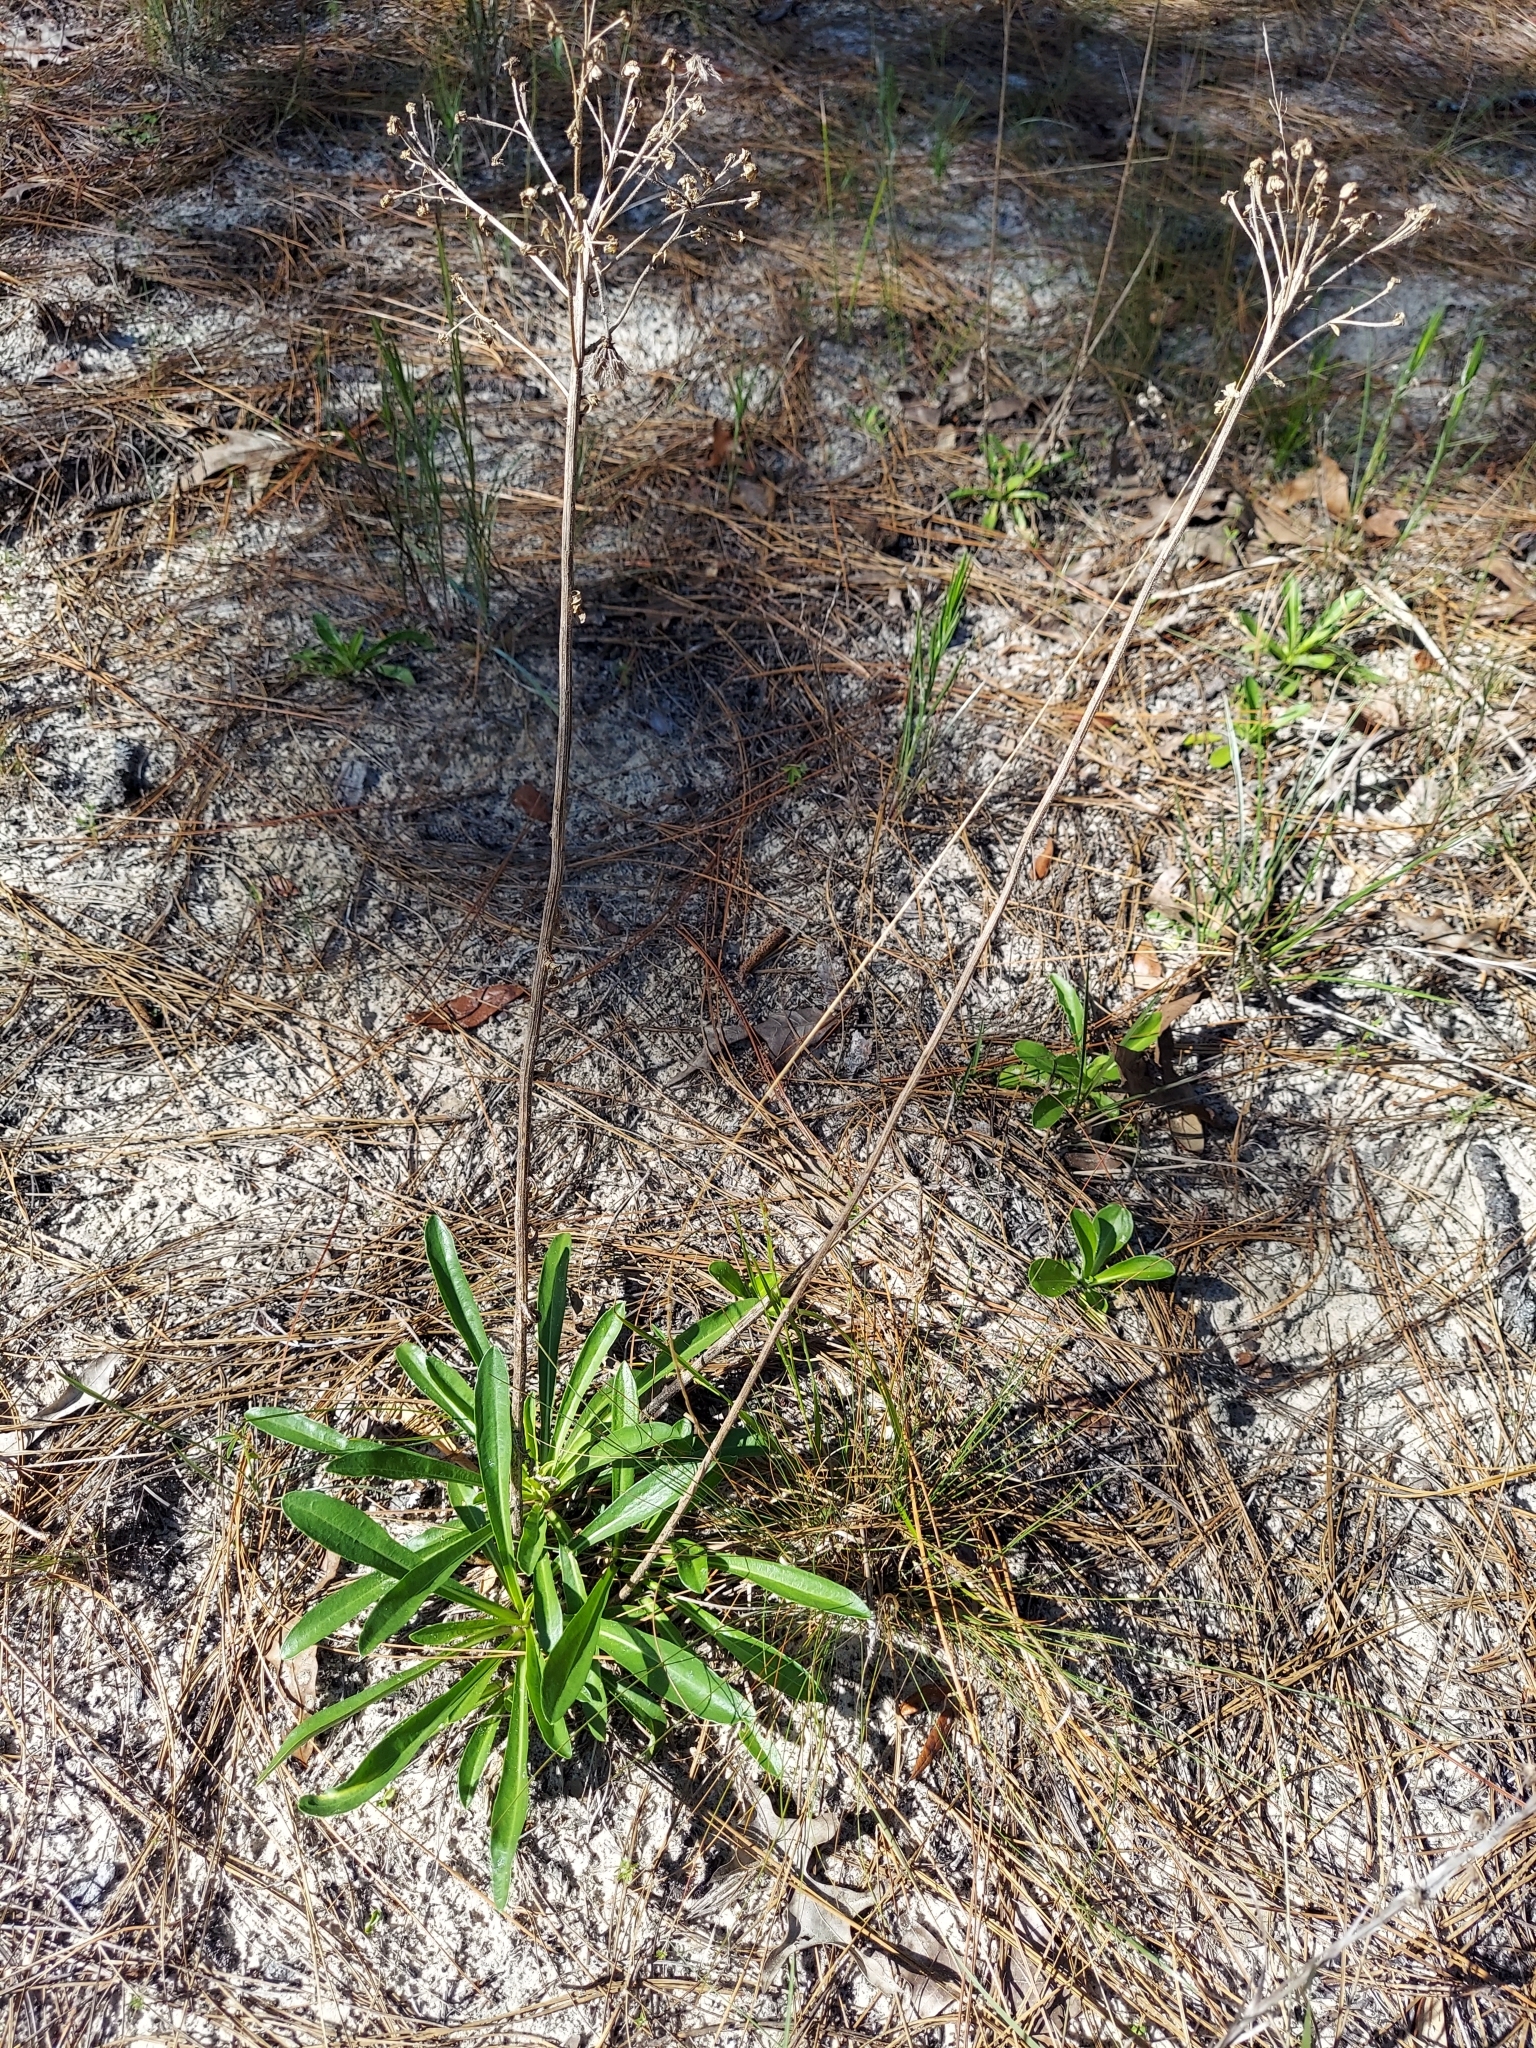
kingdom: Plantae
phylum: Tracheophyta
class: Magnoliopsida
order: Asterales
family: Asteraceae
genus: Carphephorus
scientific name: Carphephorus corymbosus
